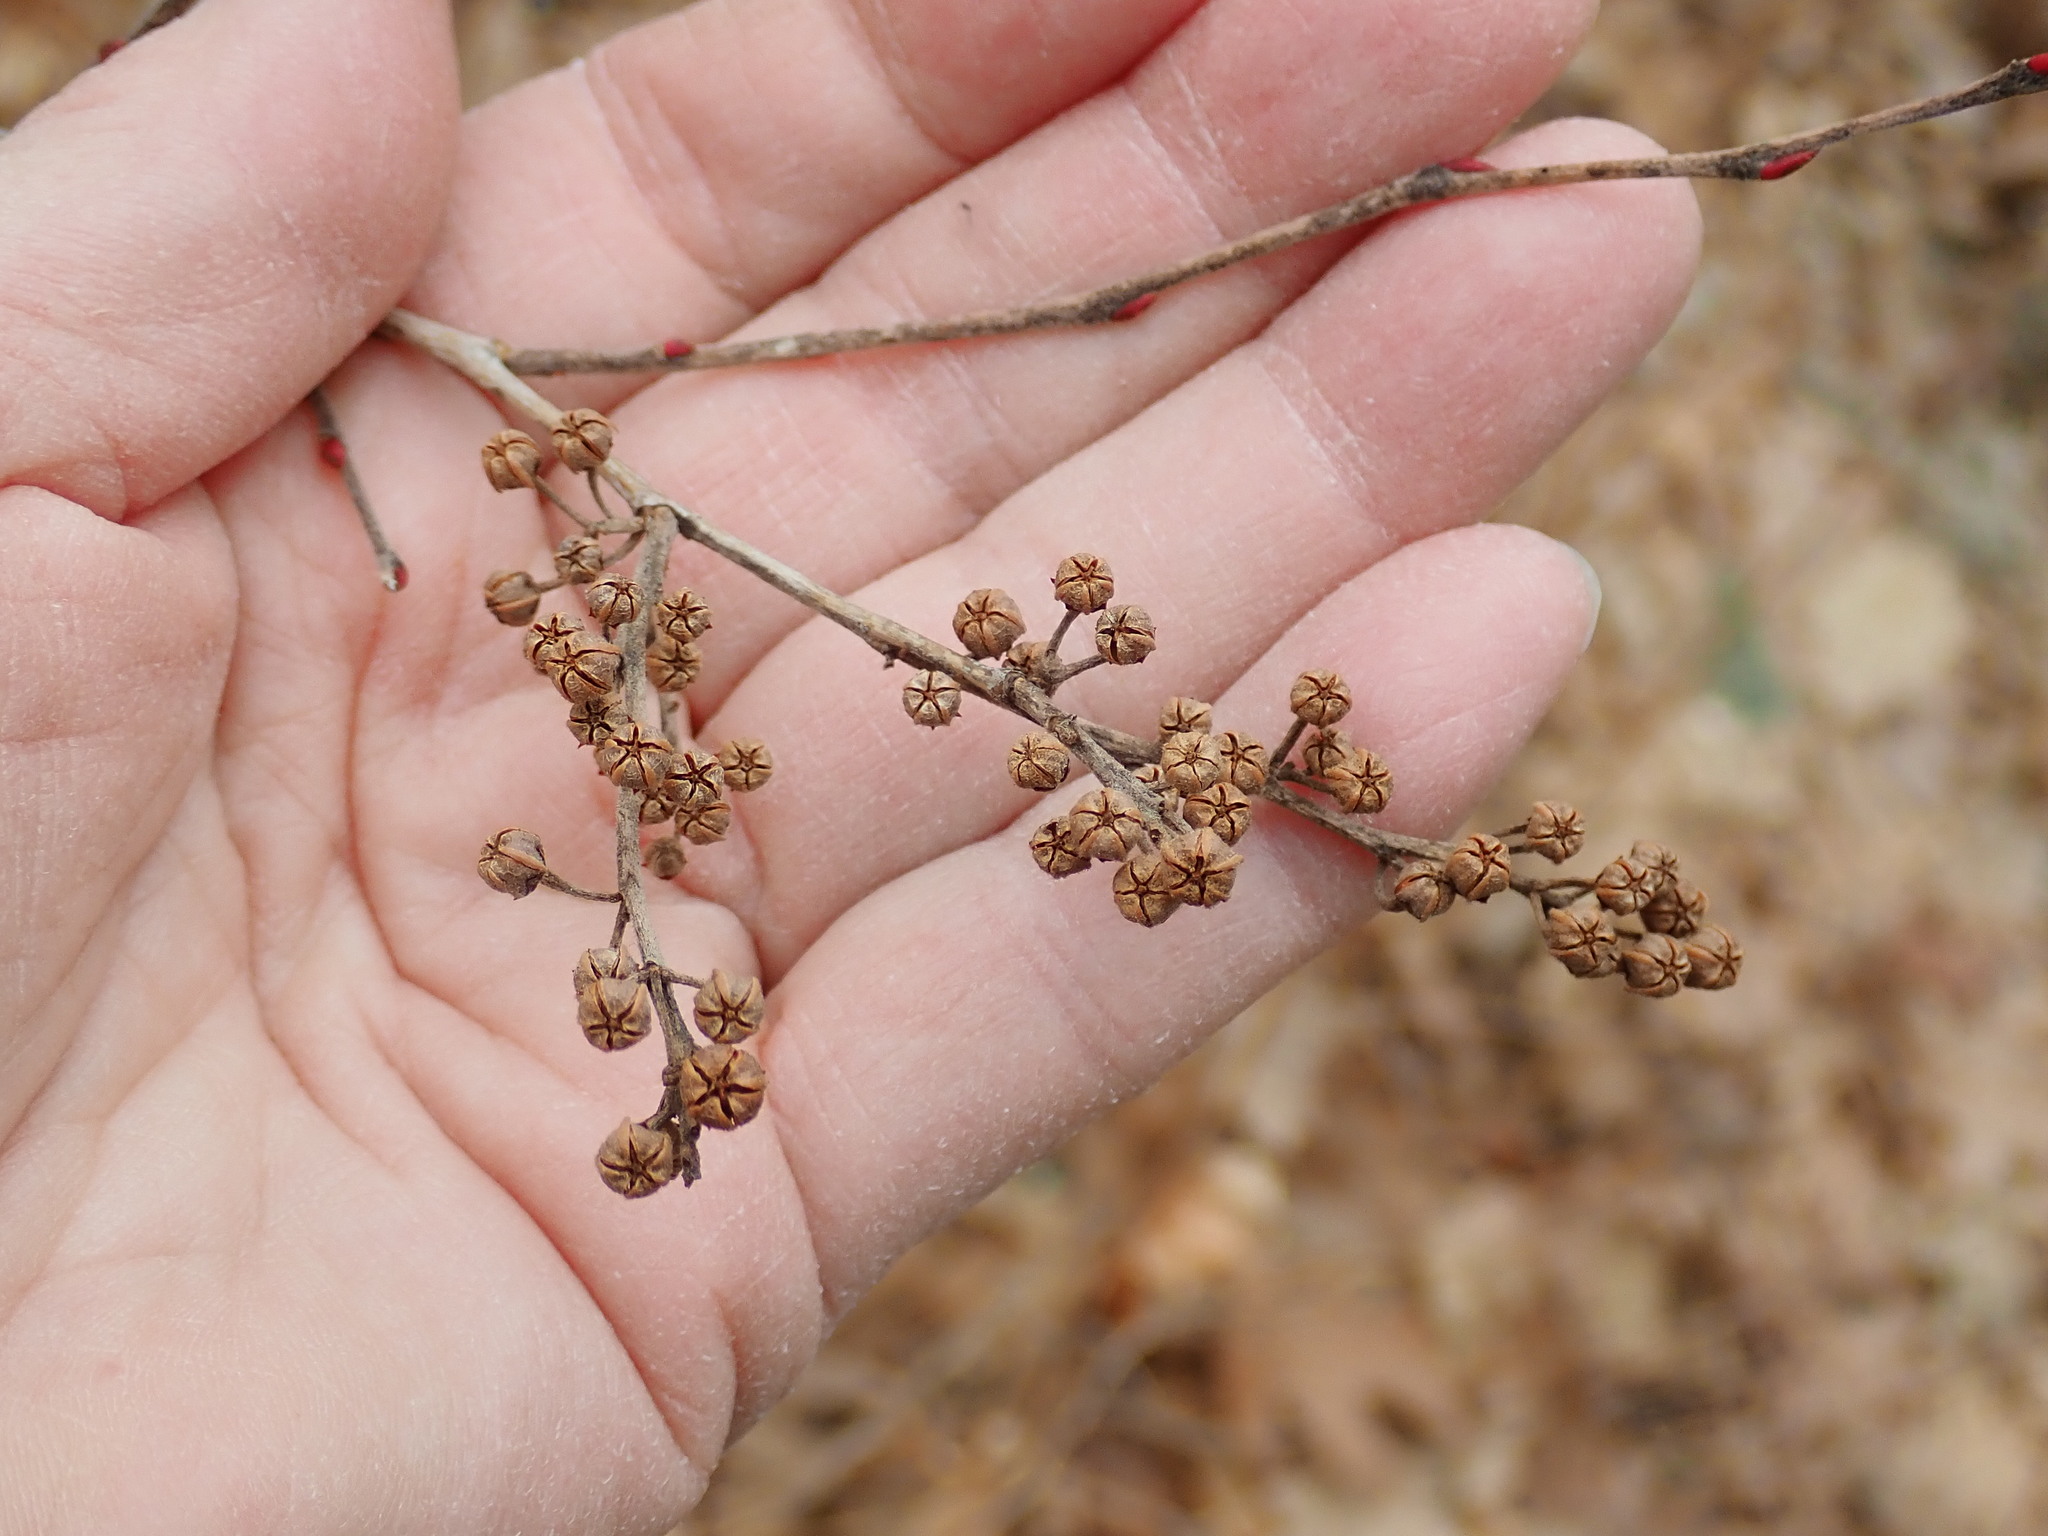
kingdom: Plantae
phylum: Tracheophyta
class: Magnoliopsida
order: Ericales
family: Ericaceae
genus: Lyonia
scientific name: Lyonia ligustrina
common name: Maleberry
